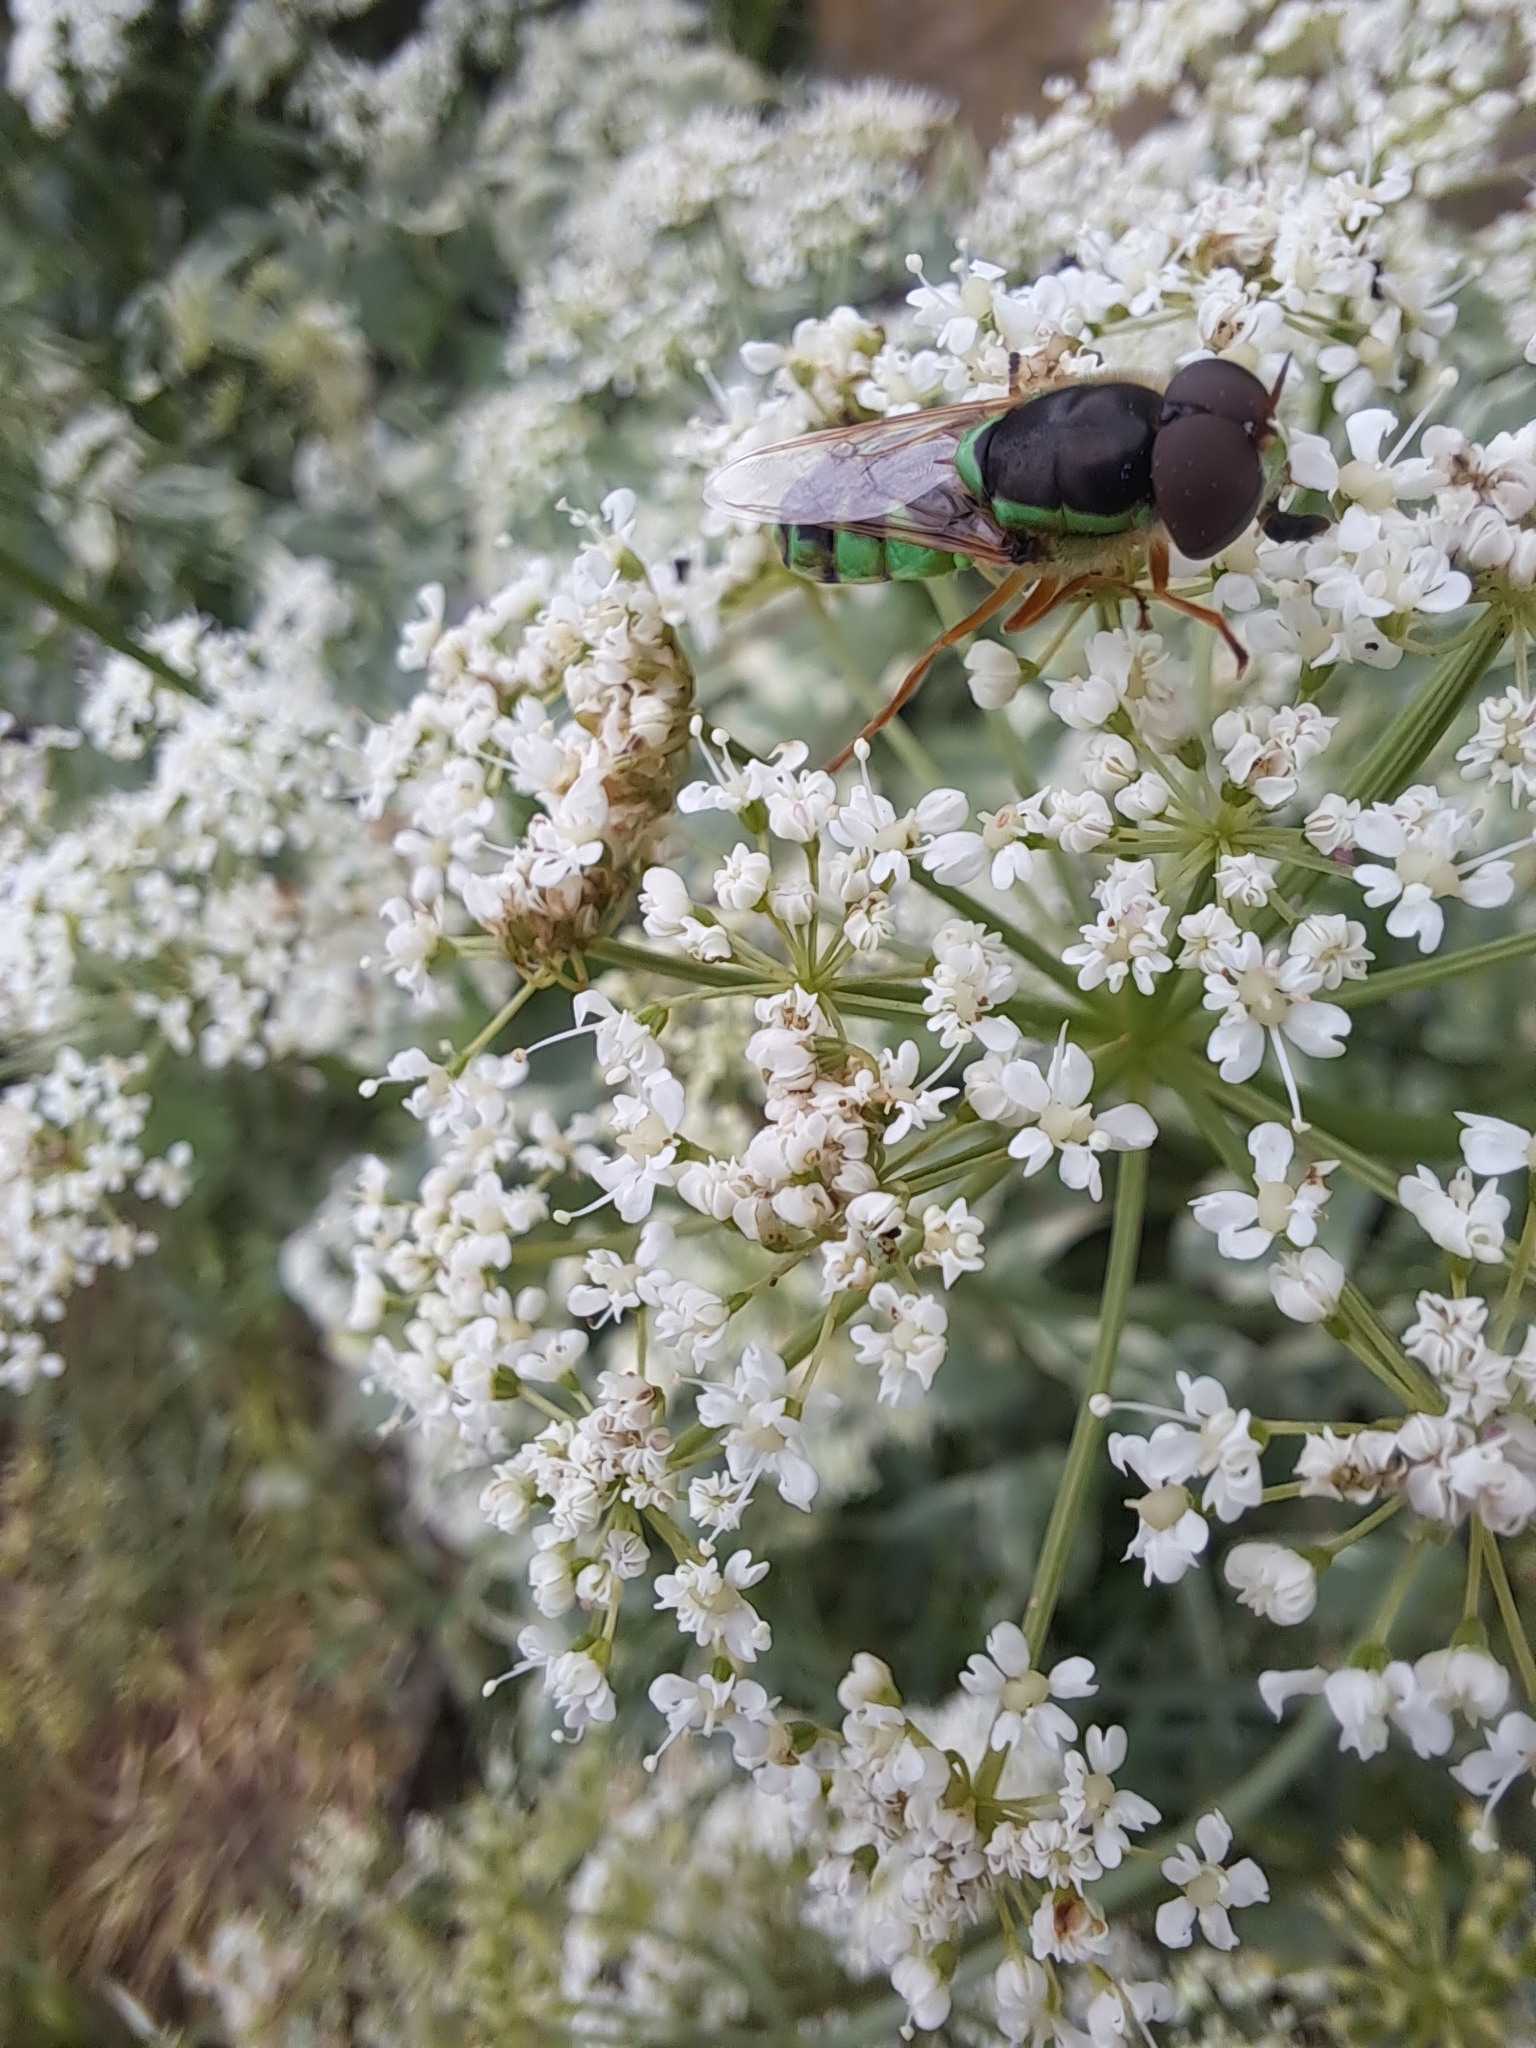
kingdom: Animalia
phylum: Arthropoda
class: Insecta
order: Diptera
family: Stratiomyidae
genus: Odontomyia
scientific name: Odontomyia cincta
